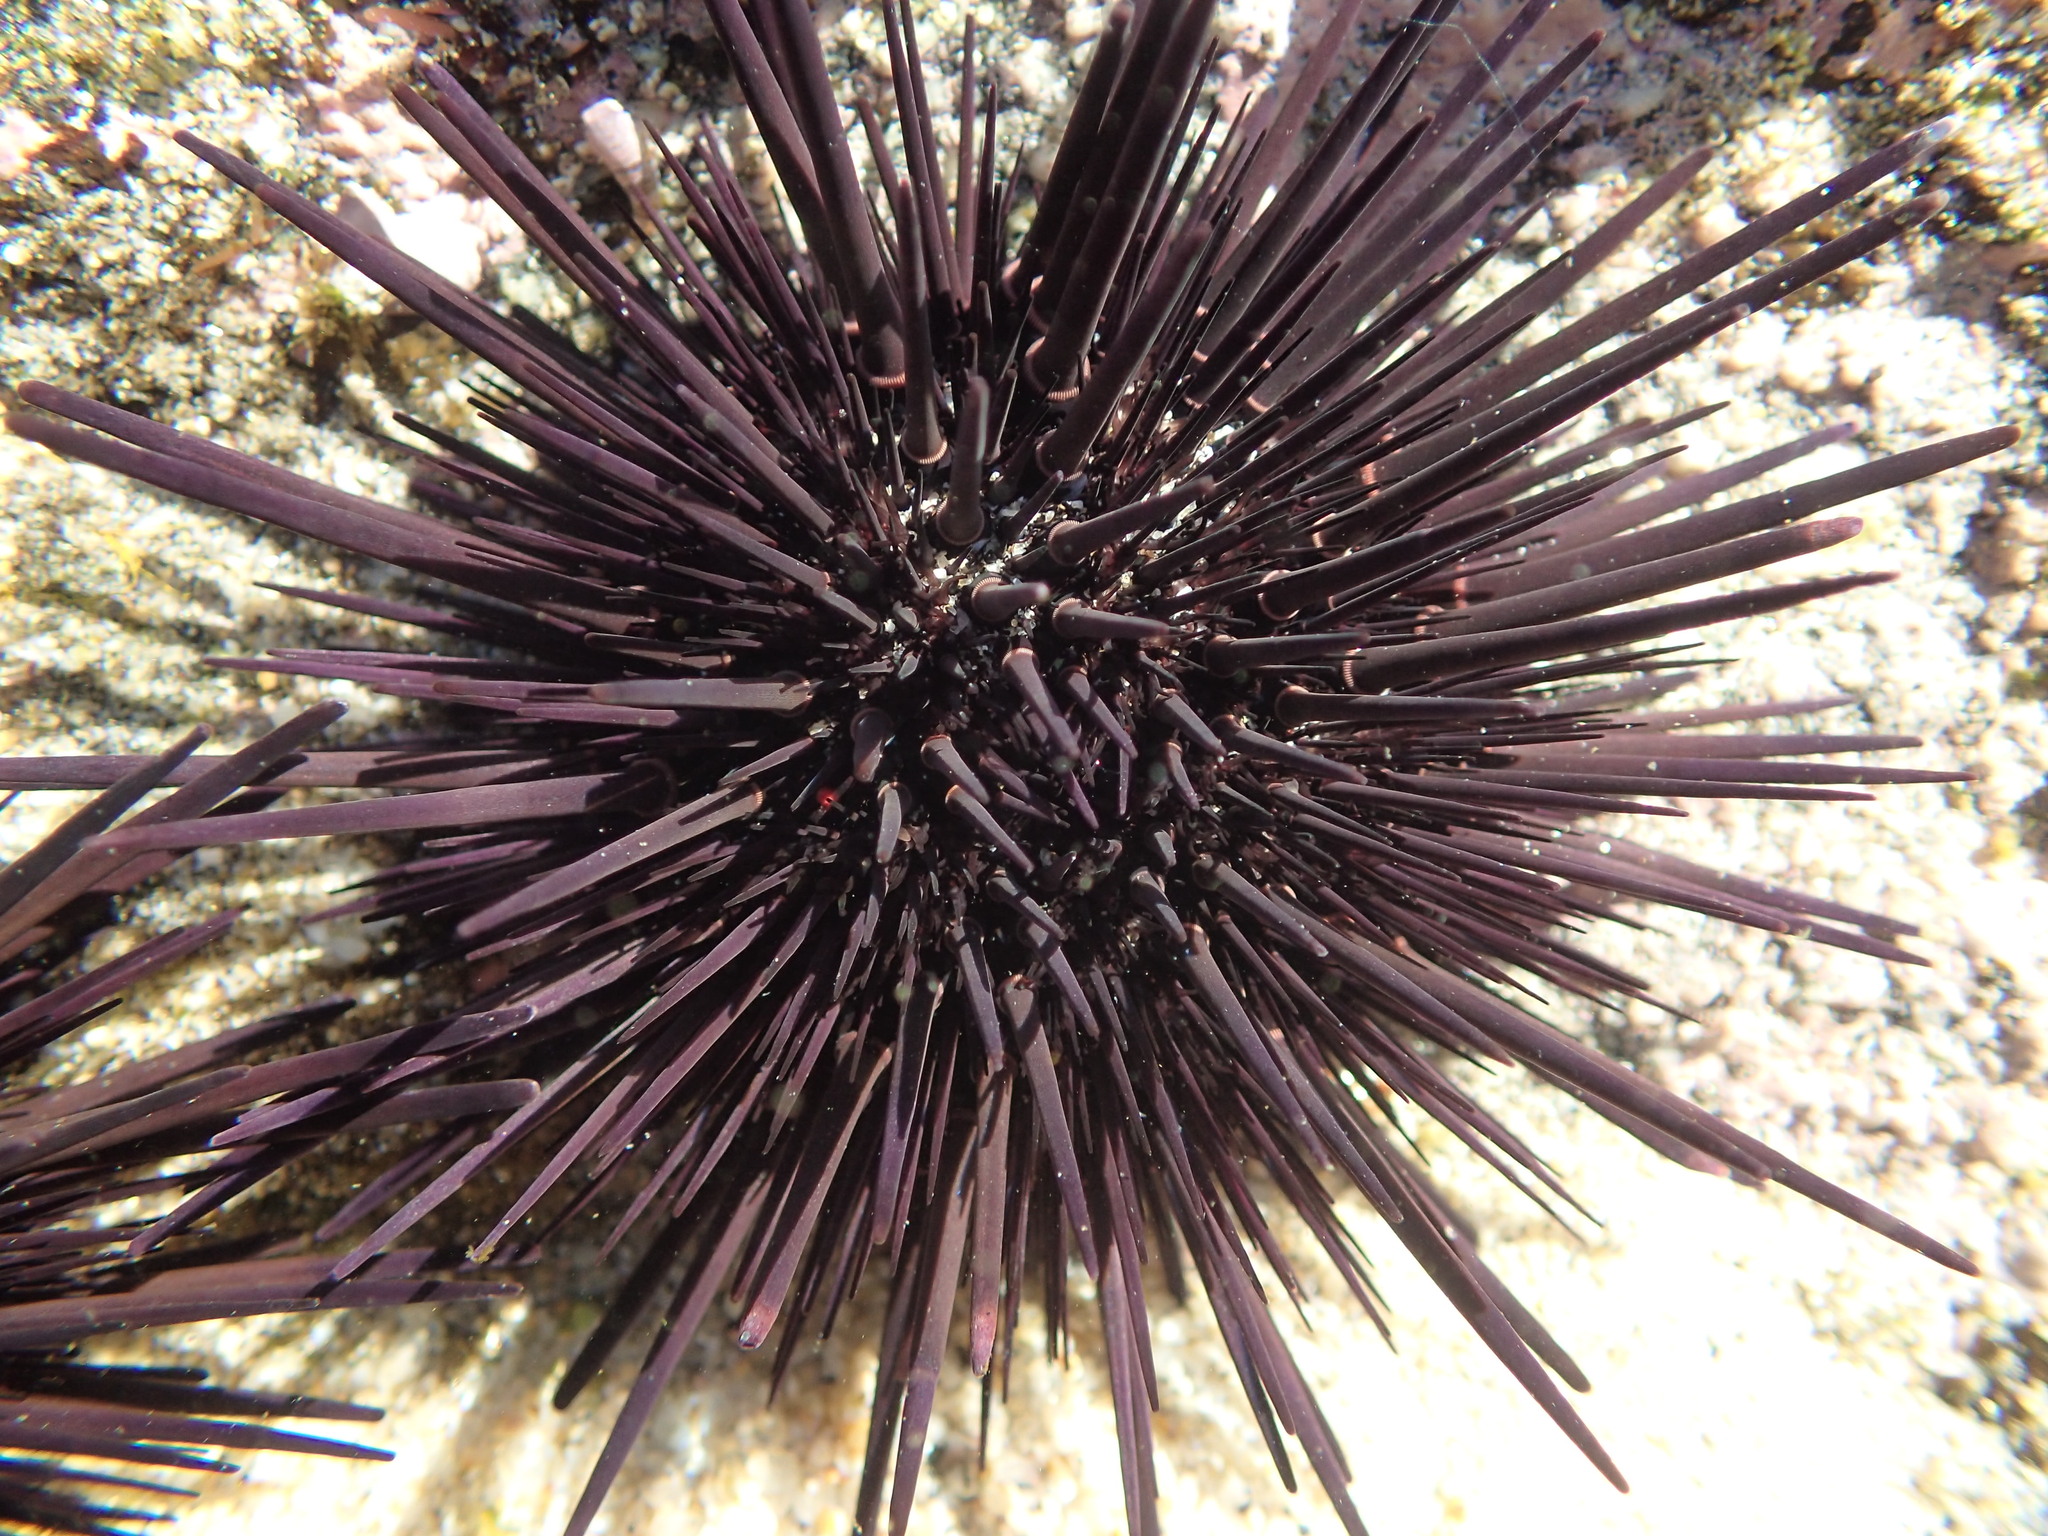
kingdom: Animalia
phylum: Echinodermata
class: Echinoidea
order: Camarodonta
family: Echinometridae
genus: Echinometra
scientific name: Echinometra vanbrunti
